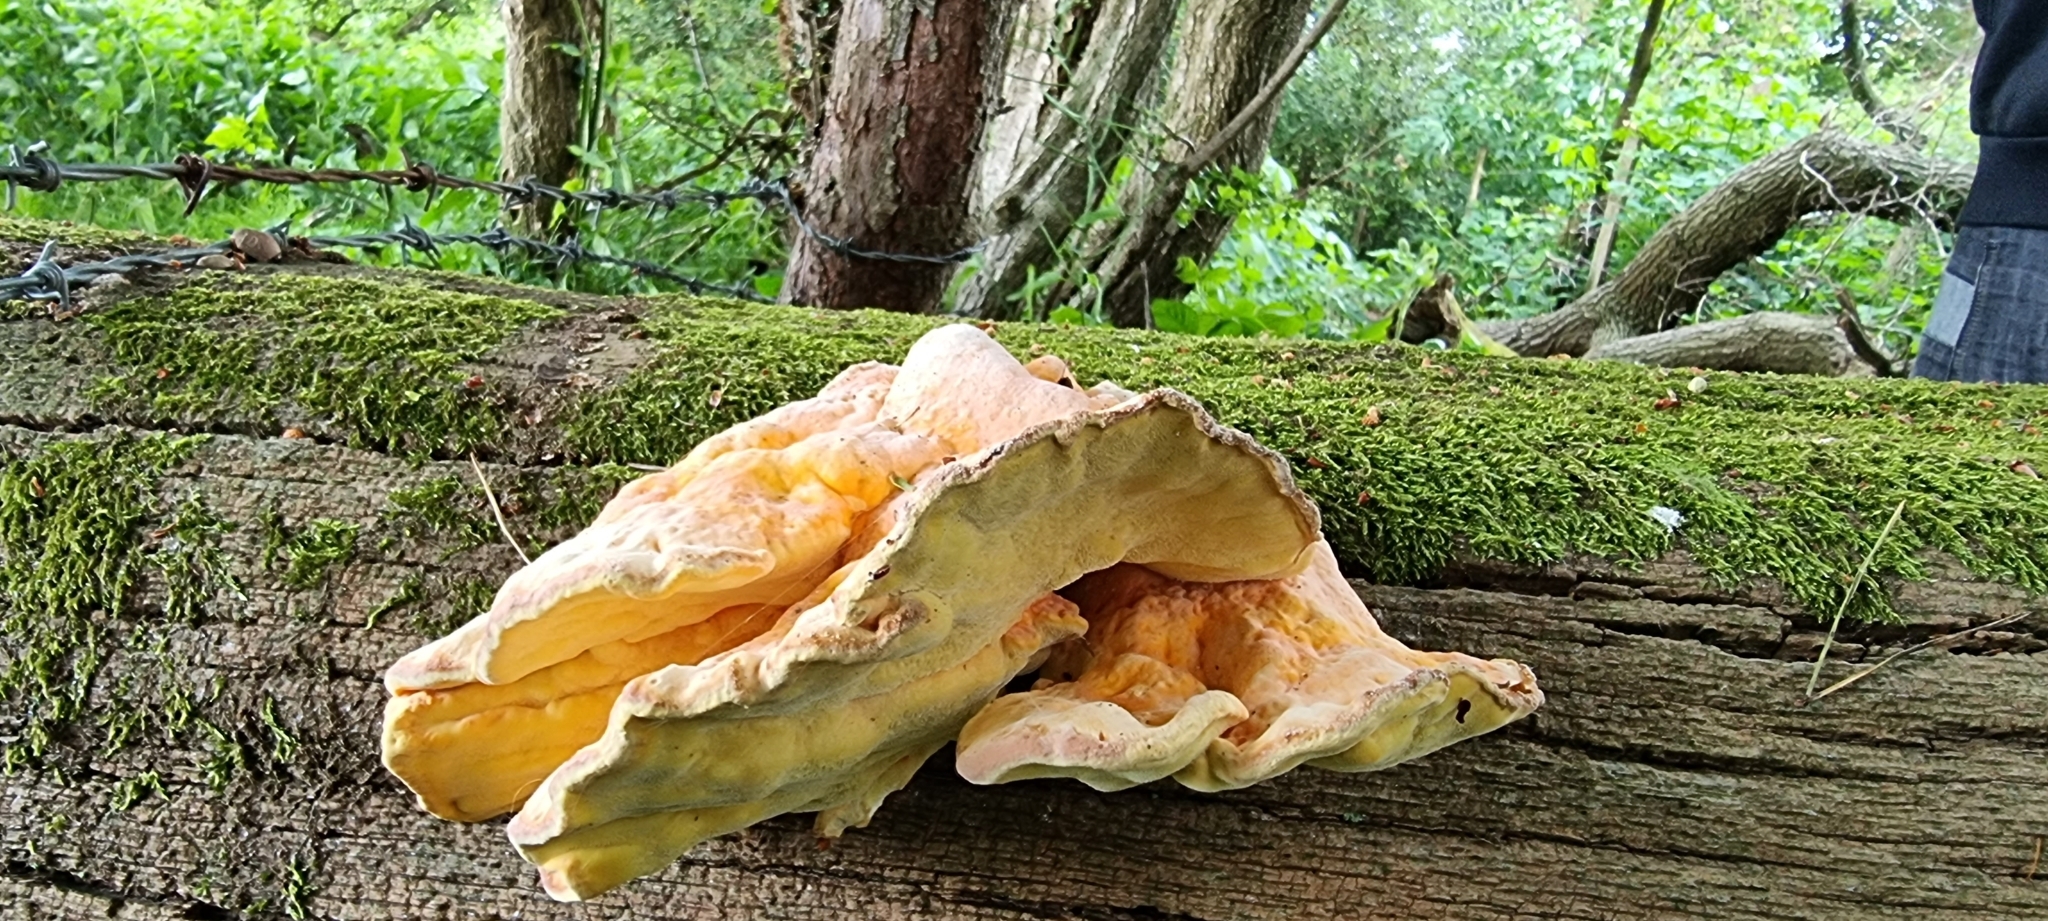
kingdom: Fungi
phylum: Basidiomycota
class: Agaricomycetes
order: Polyporales
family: Laetiporaceae
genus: Laetiporus
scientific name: Laetiporus sulphureus
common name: Chicken of the woods
